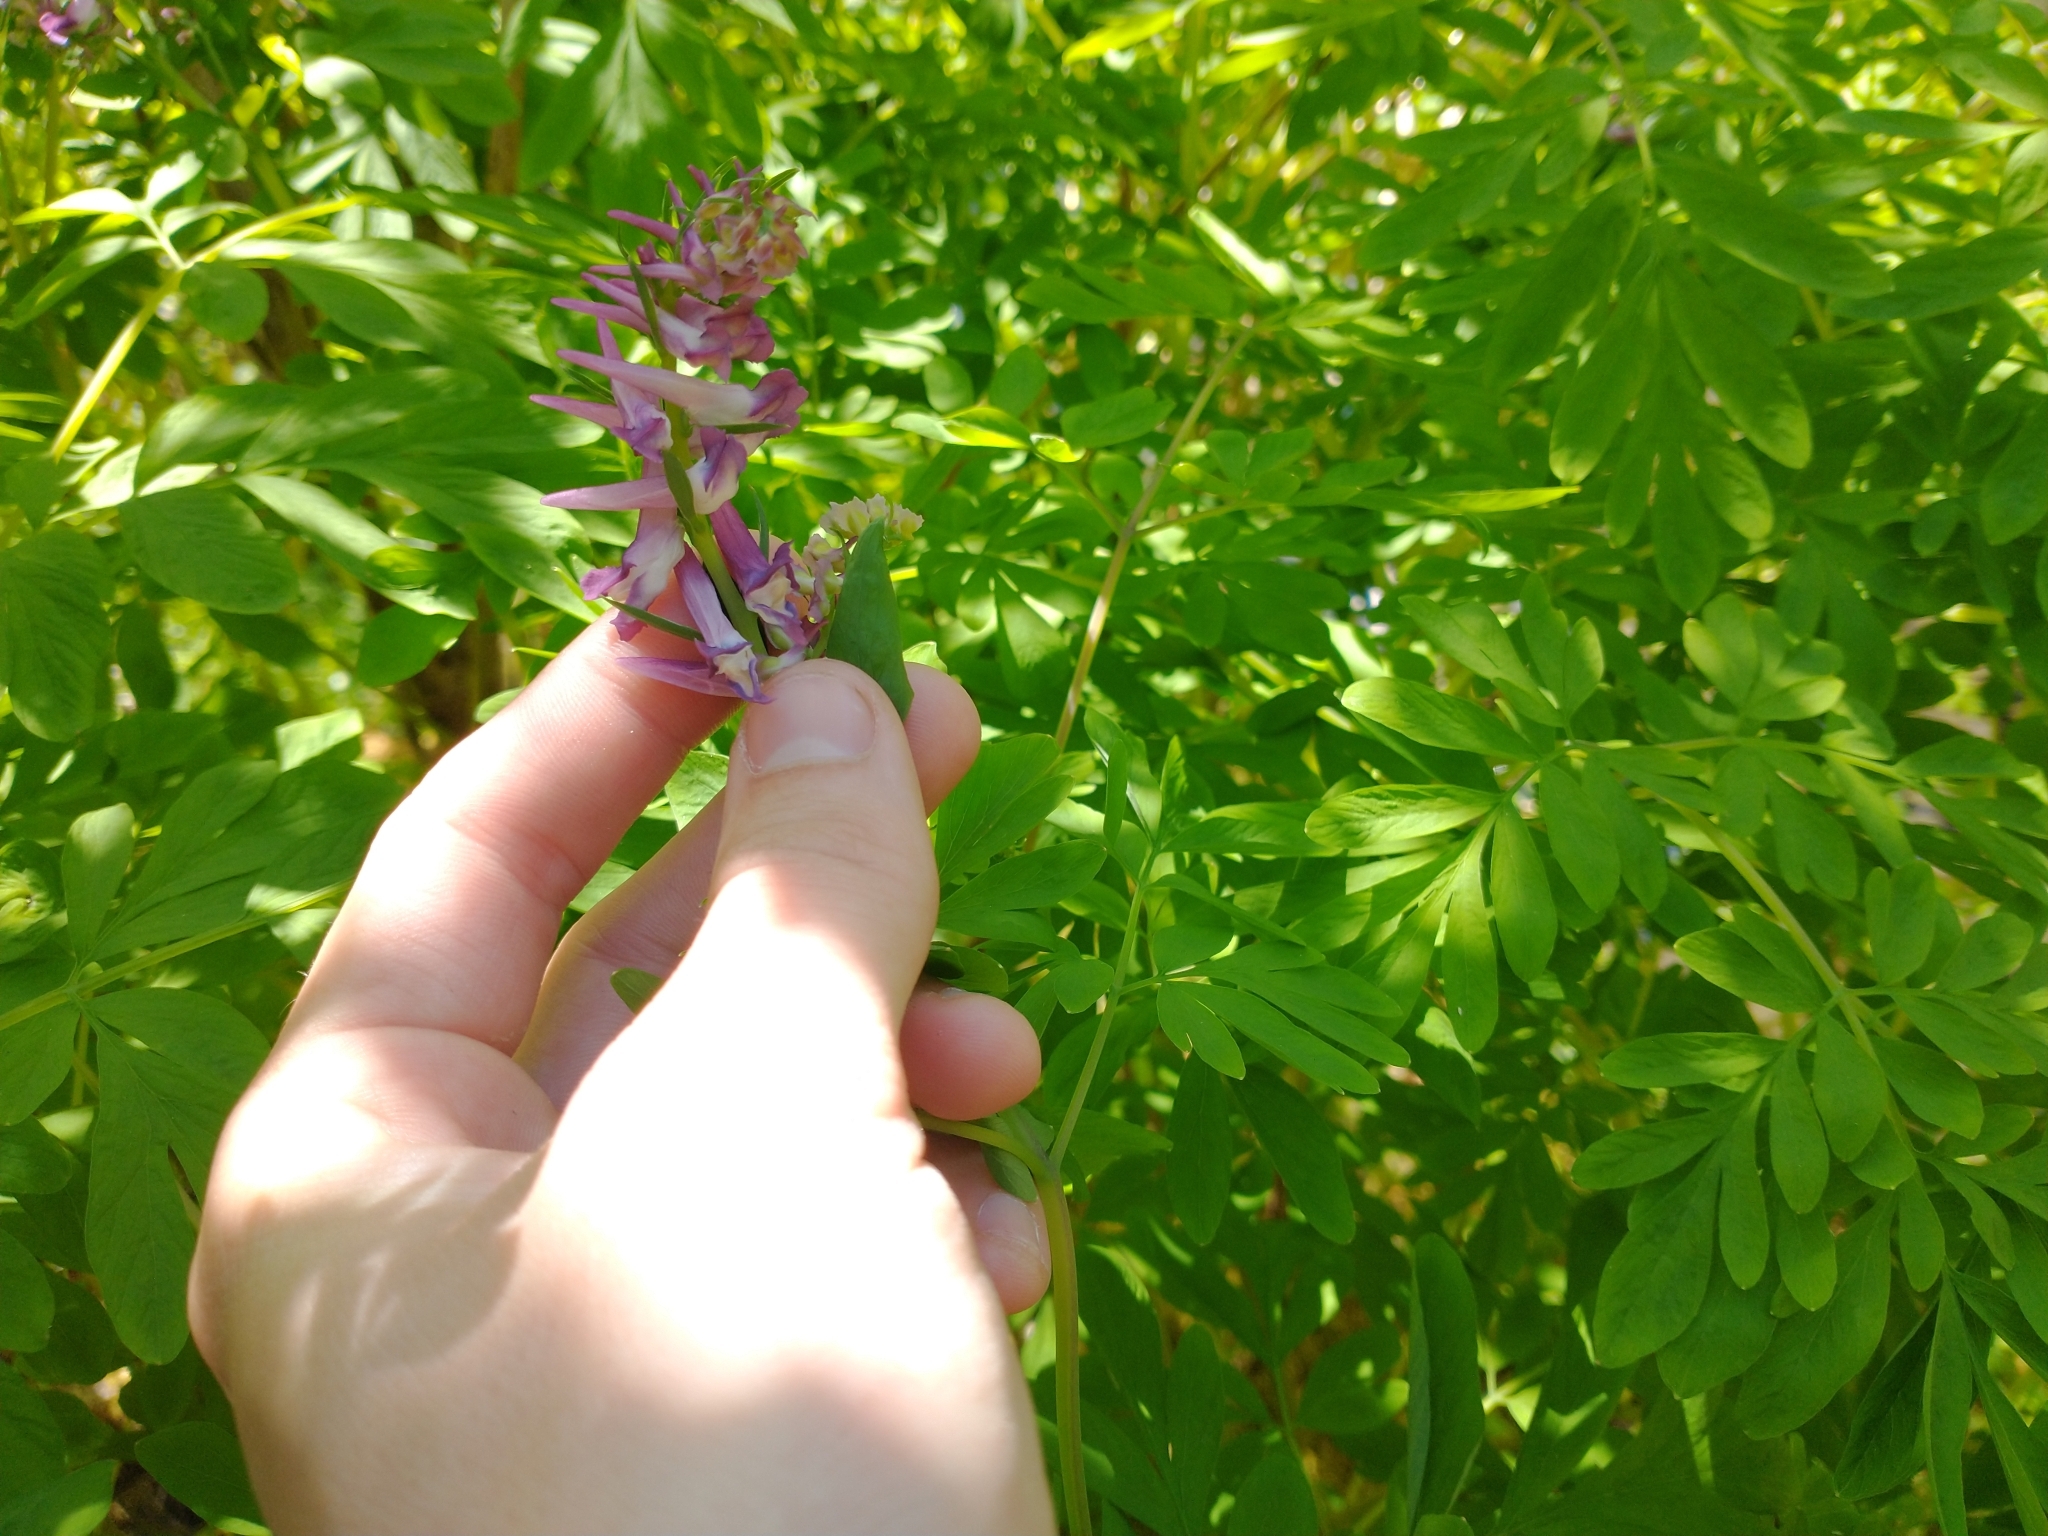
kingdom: Plantae
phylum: Tracheophyta
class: Magnoliopsida
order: Ranunculales
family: Papaveraceae
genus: Corydalis
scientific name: Corydalis scouleri
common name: Scouler's corydalis
